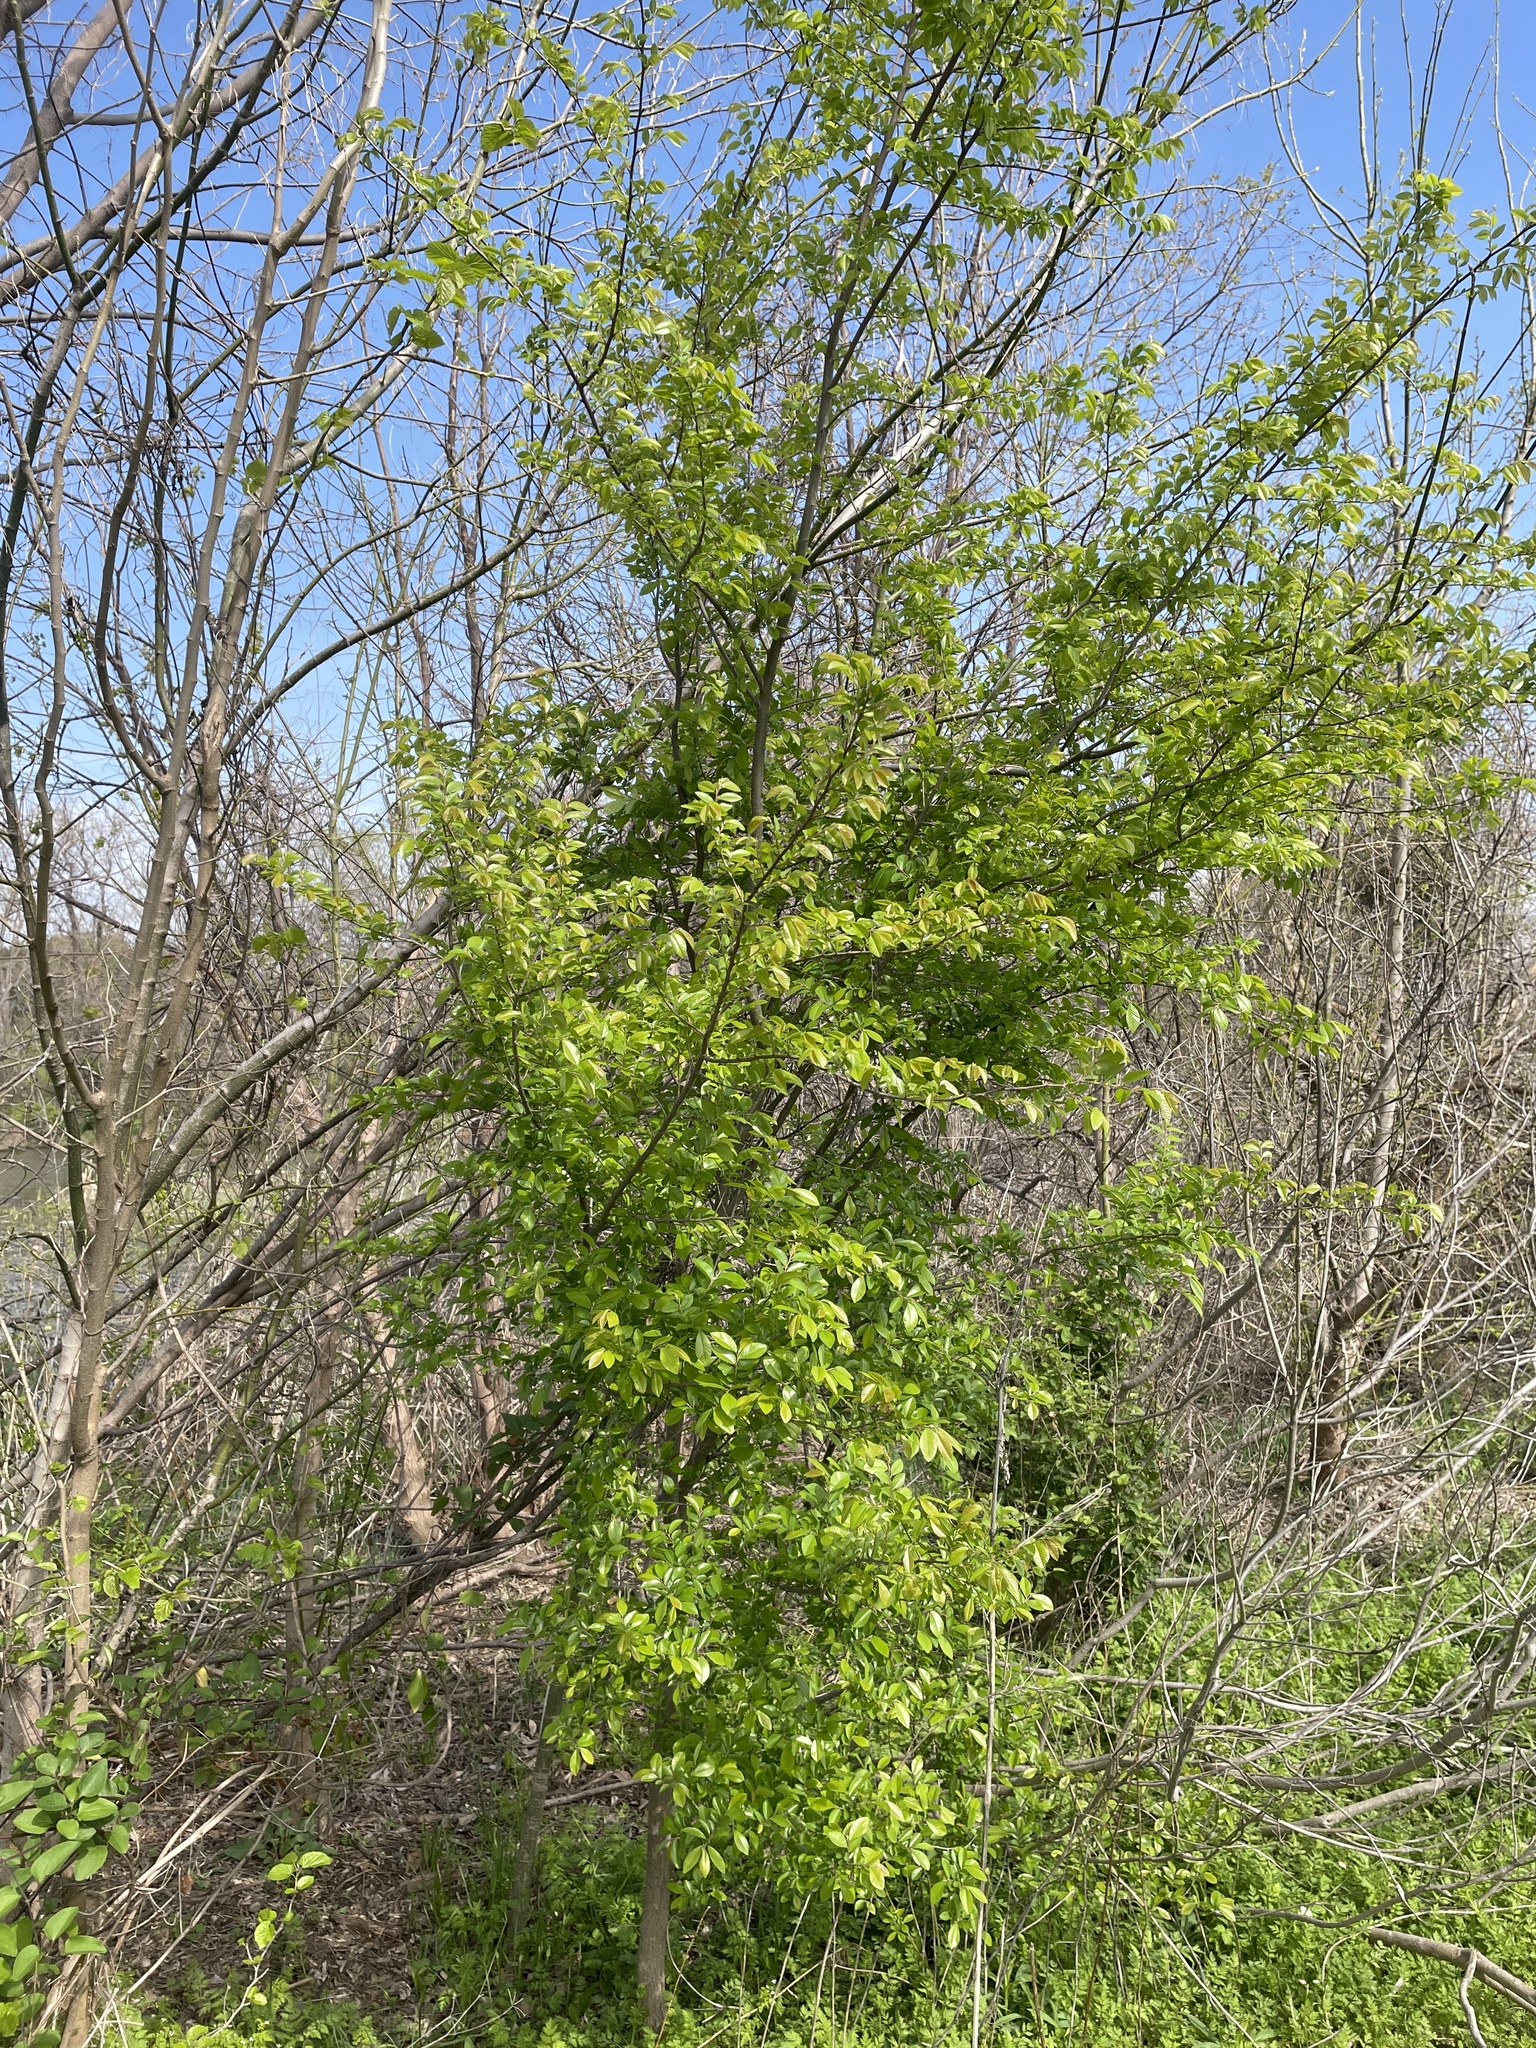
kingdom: Plantae
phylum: Tracheophyta
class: Magnoliopsida
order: Rosales
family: Ulmaceae
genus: Ulmus
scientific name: Ulmus parvifolia
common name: Chinese elm
